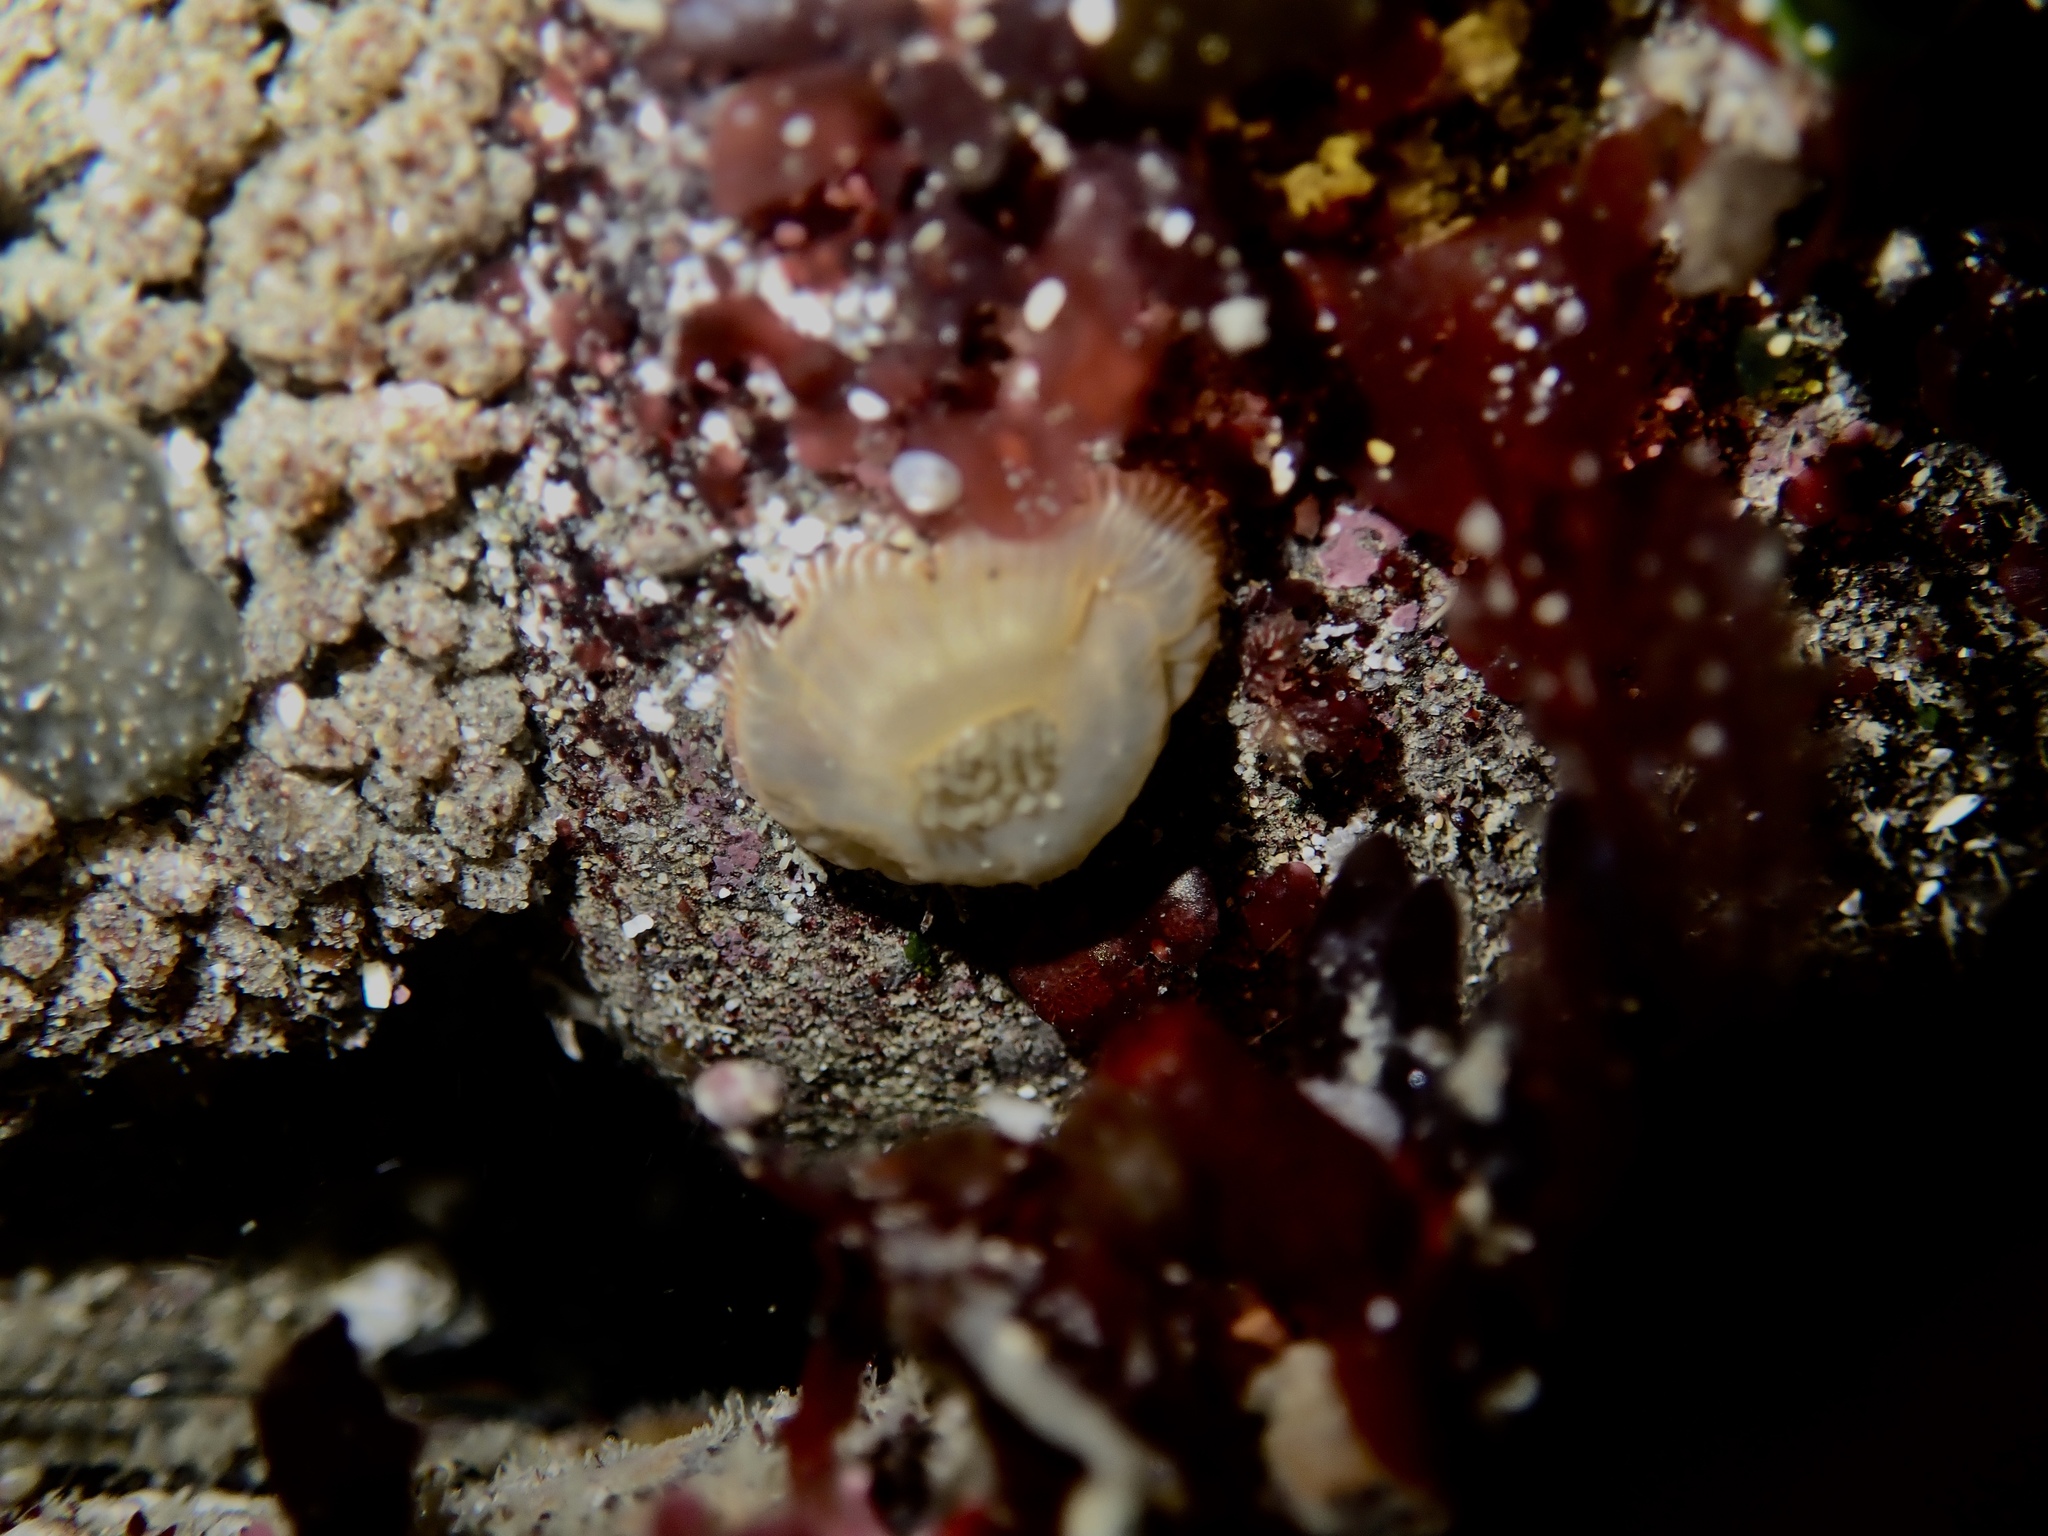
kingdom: Animalia
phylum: Cnidaria
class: Anthozoa
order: Actiniaria
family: Actiniidae
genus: Epiactis
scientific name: Epiactis prolifera
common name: Brooding anemone
